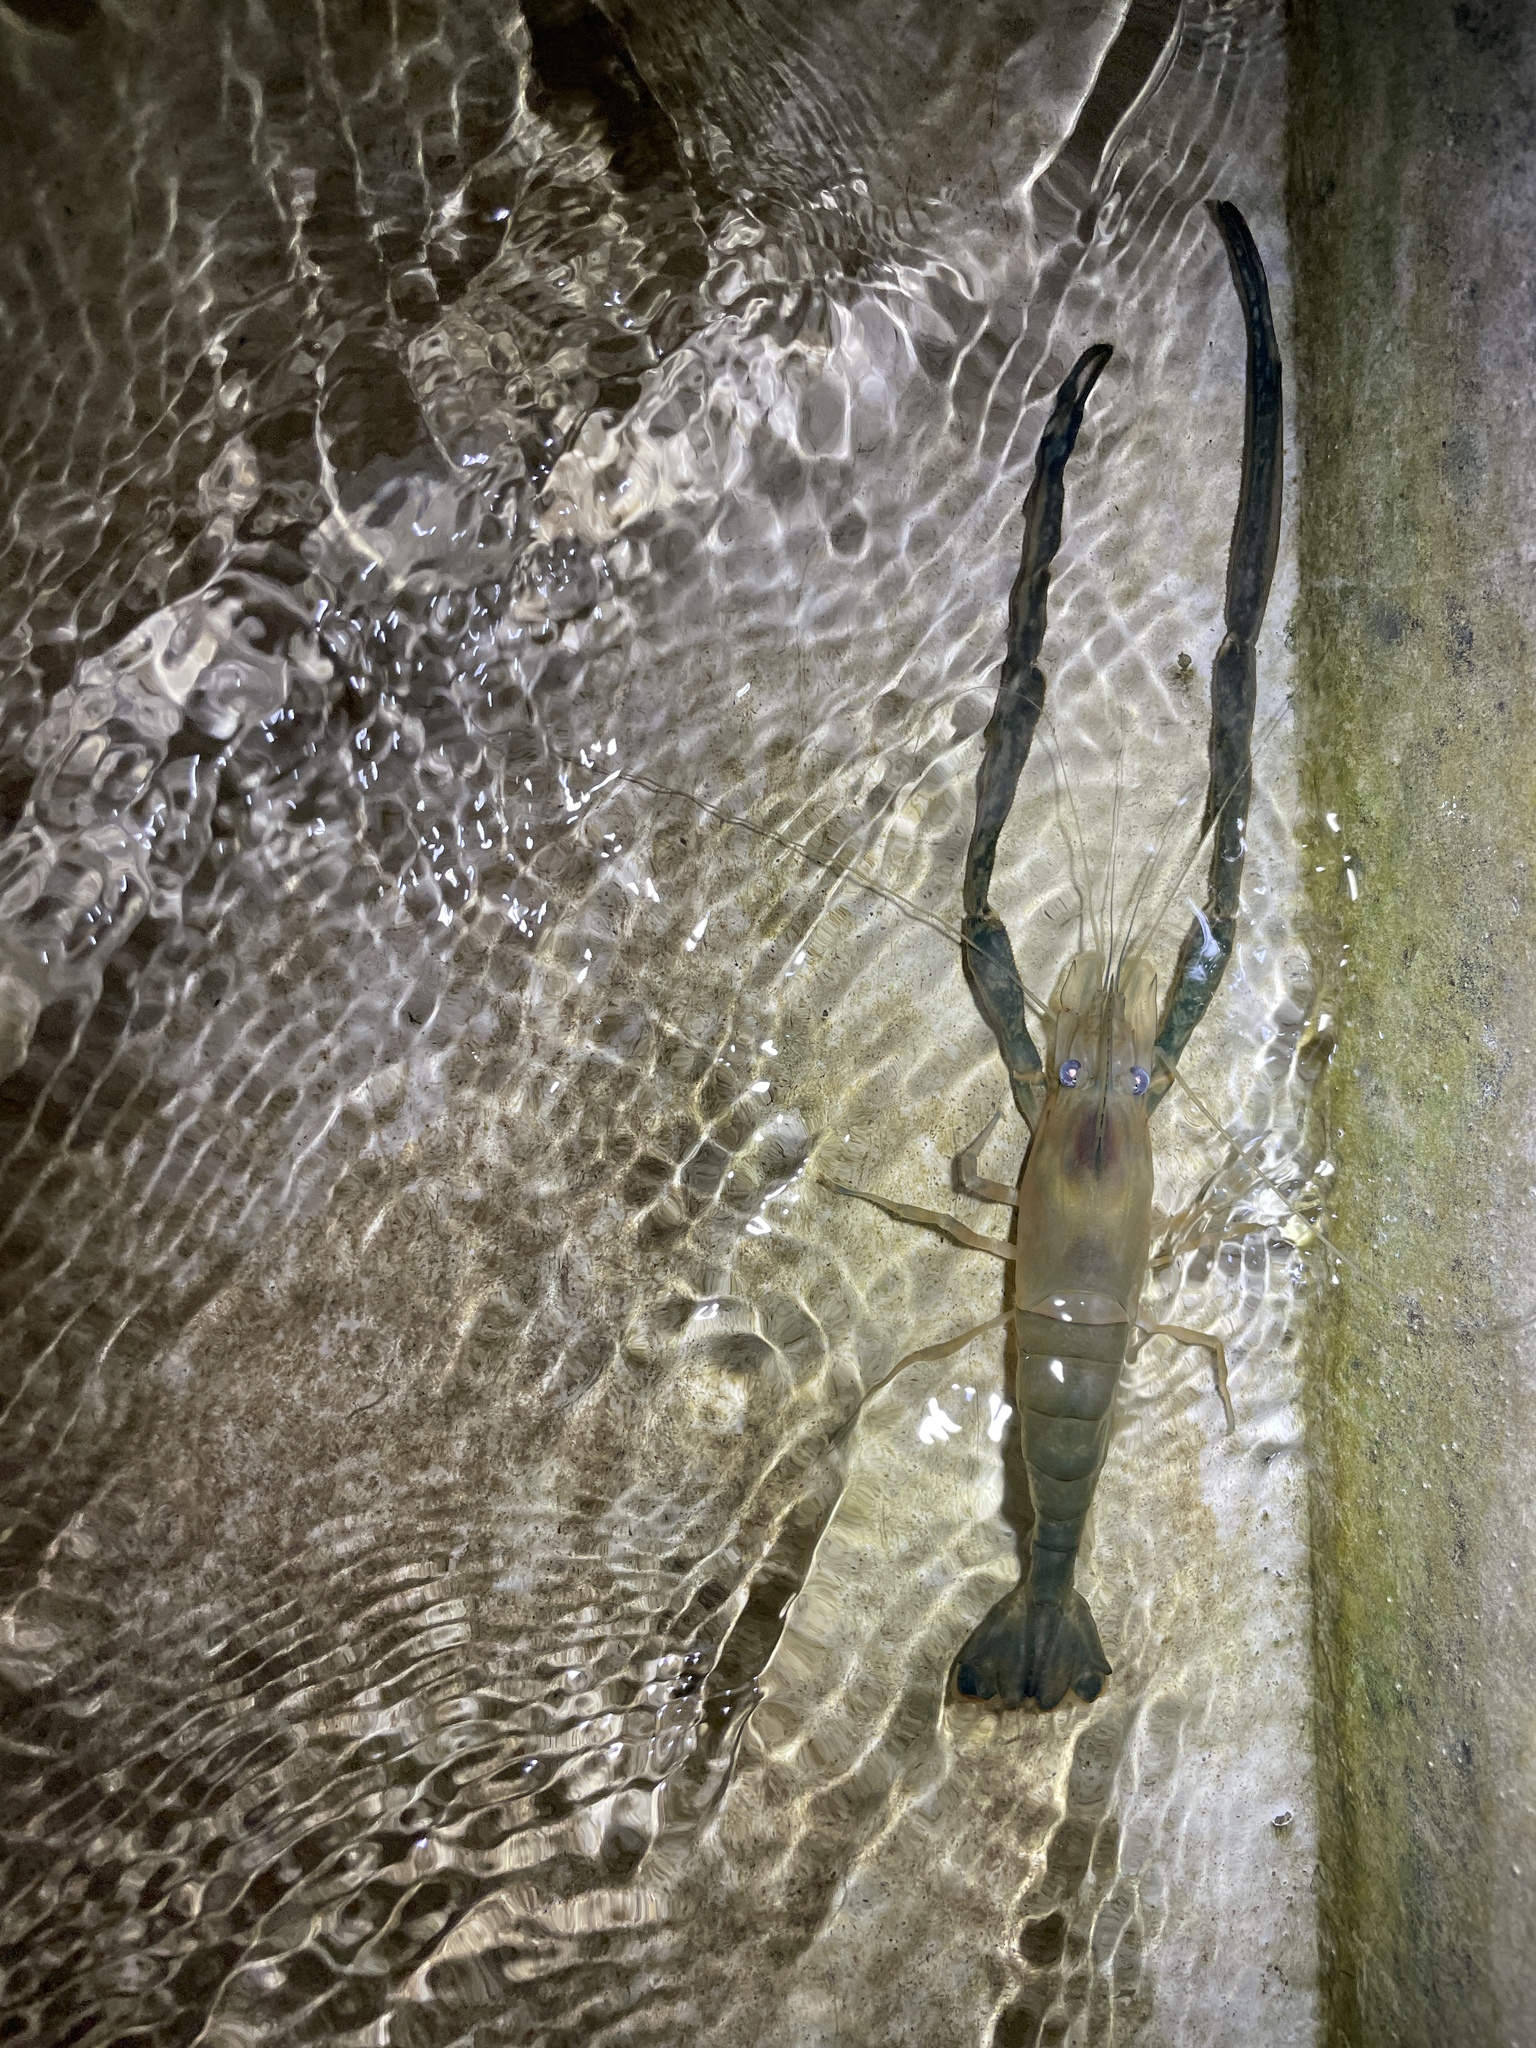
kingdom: Animalia
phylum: Arthropoda
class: Malacostraca
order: Decapoda
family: Palaemonidae
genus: Macrobrachium
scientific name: Macrobrachium formosense
